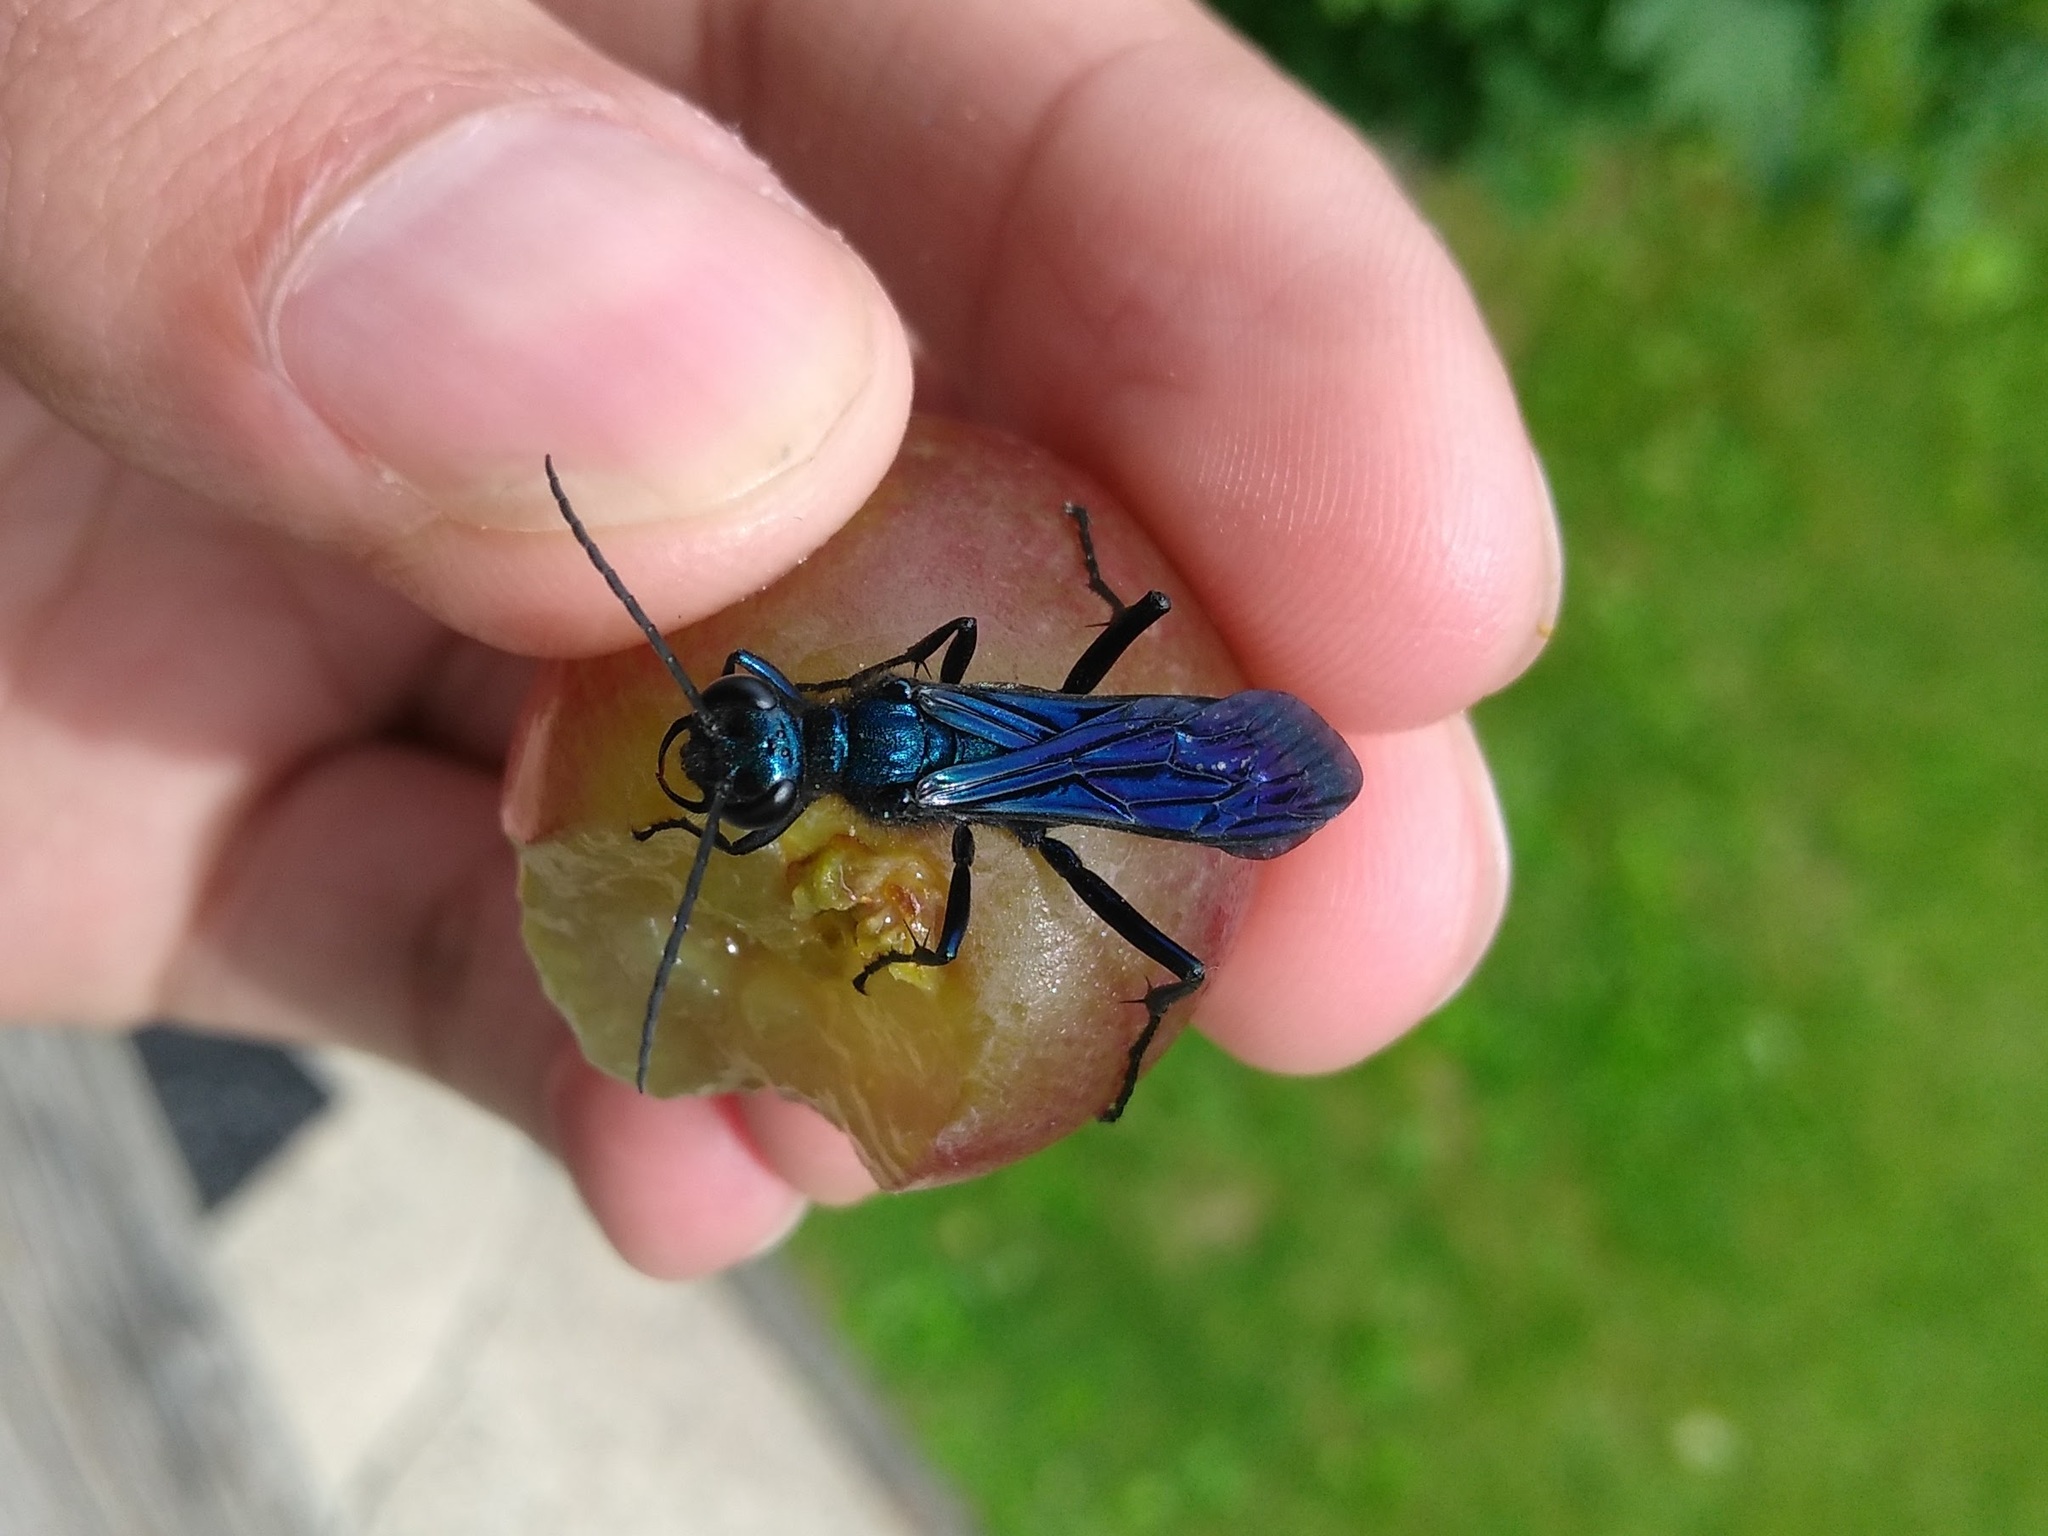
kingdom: Animalia
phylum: Arthropoda
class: Insecta
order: Hymenoptera
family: Sphecidae
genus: Chalybion
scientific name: Chalybion californicum
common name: Mud dauber
